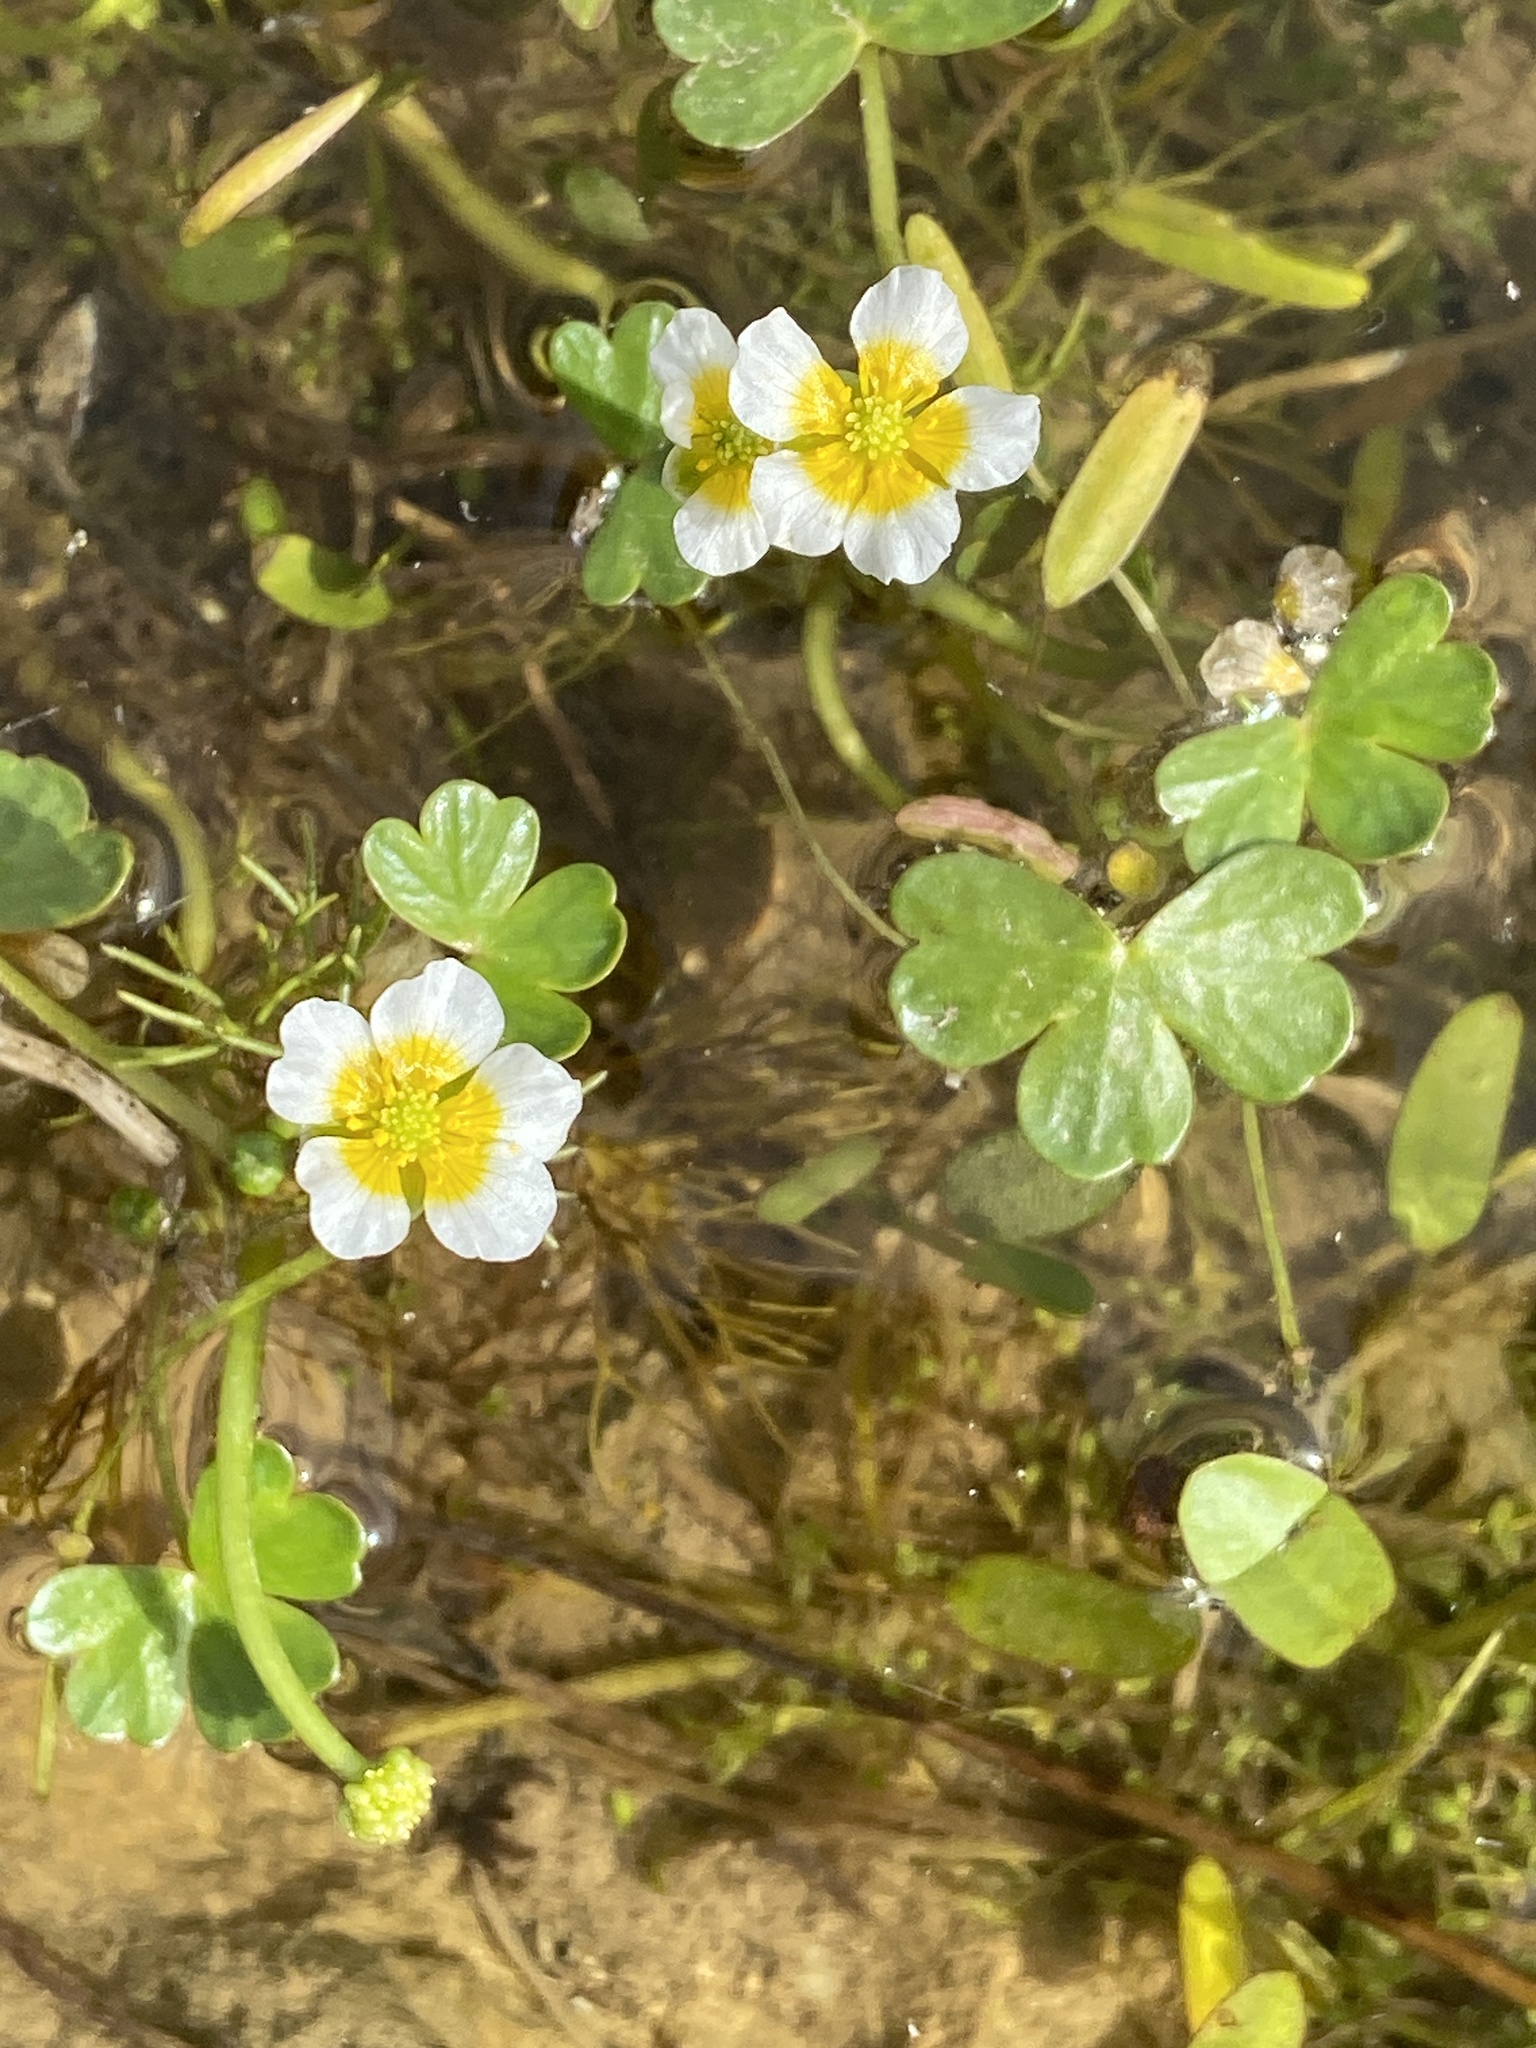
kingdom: Plantae
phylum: Tracheophyta
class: Magnoliopsida
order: Ranunculales
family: Ranunculaceae
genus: Ranunculus
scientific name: Ranunculus
